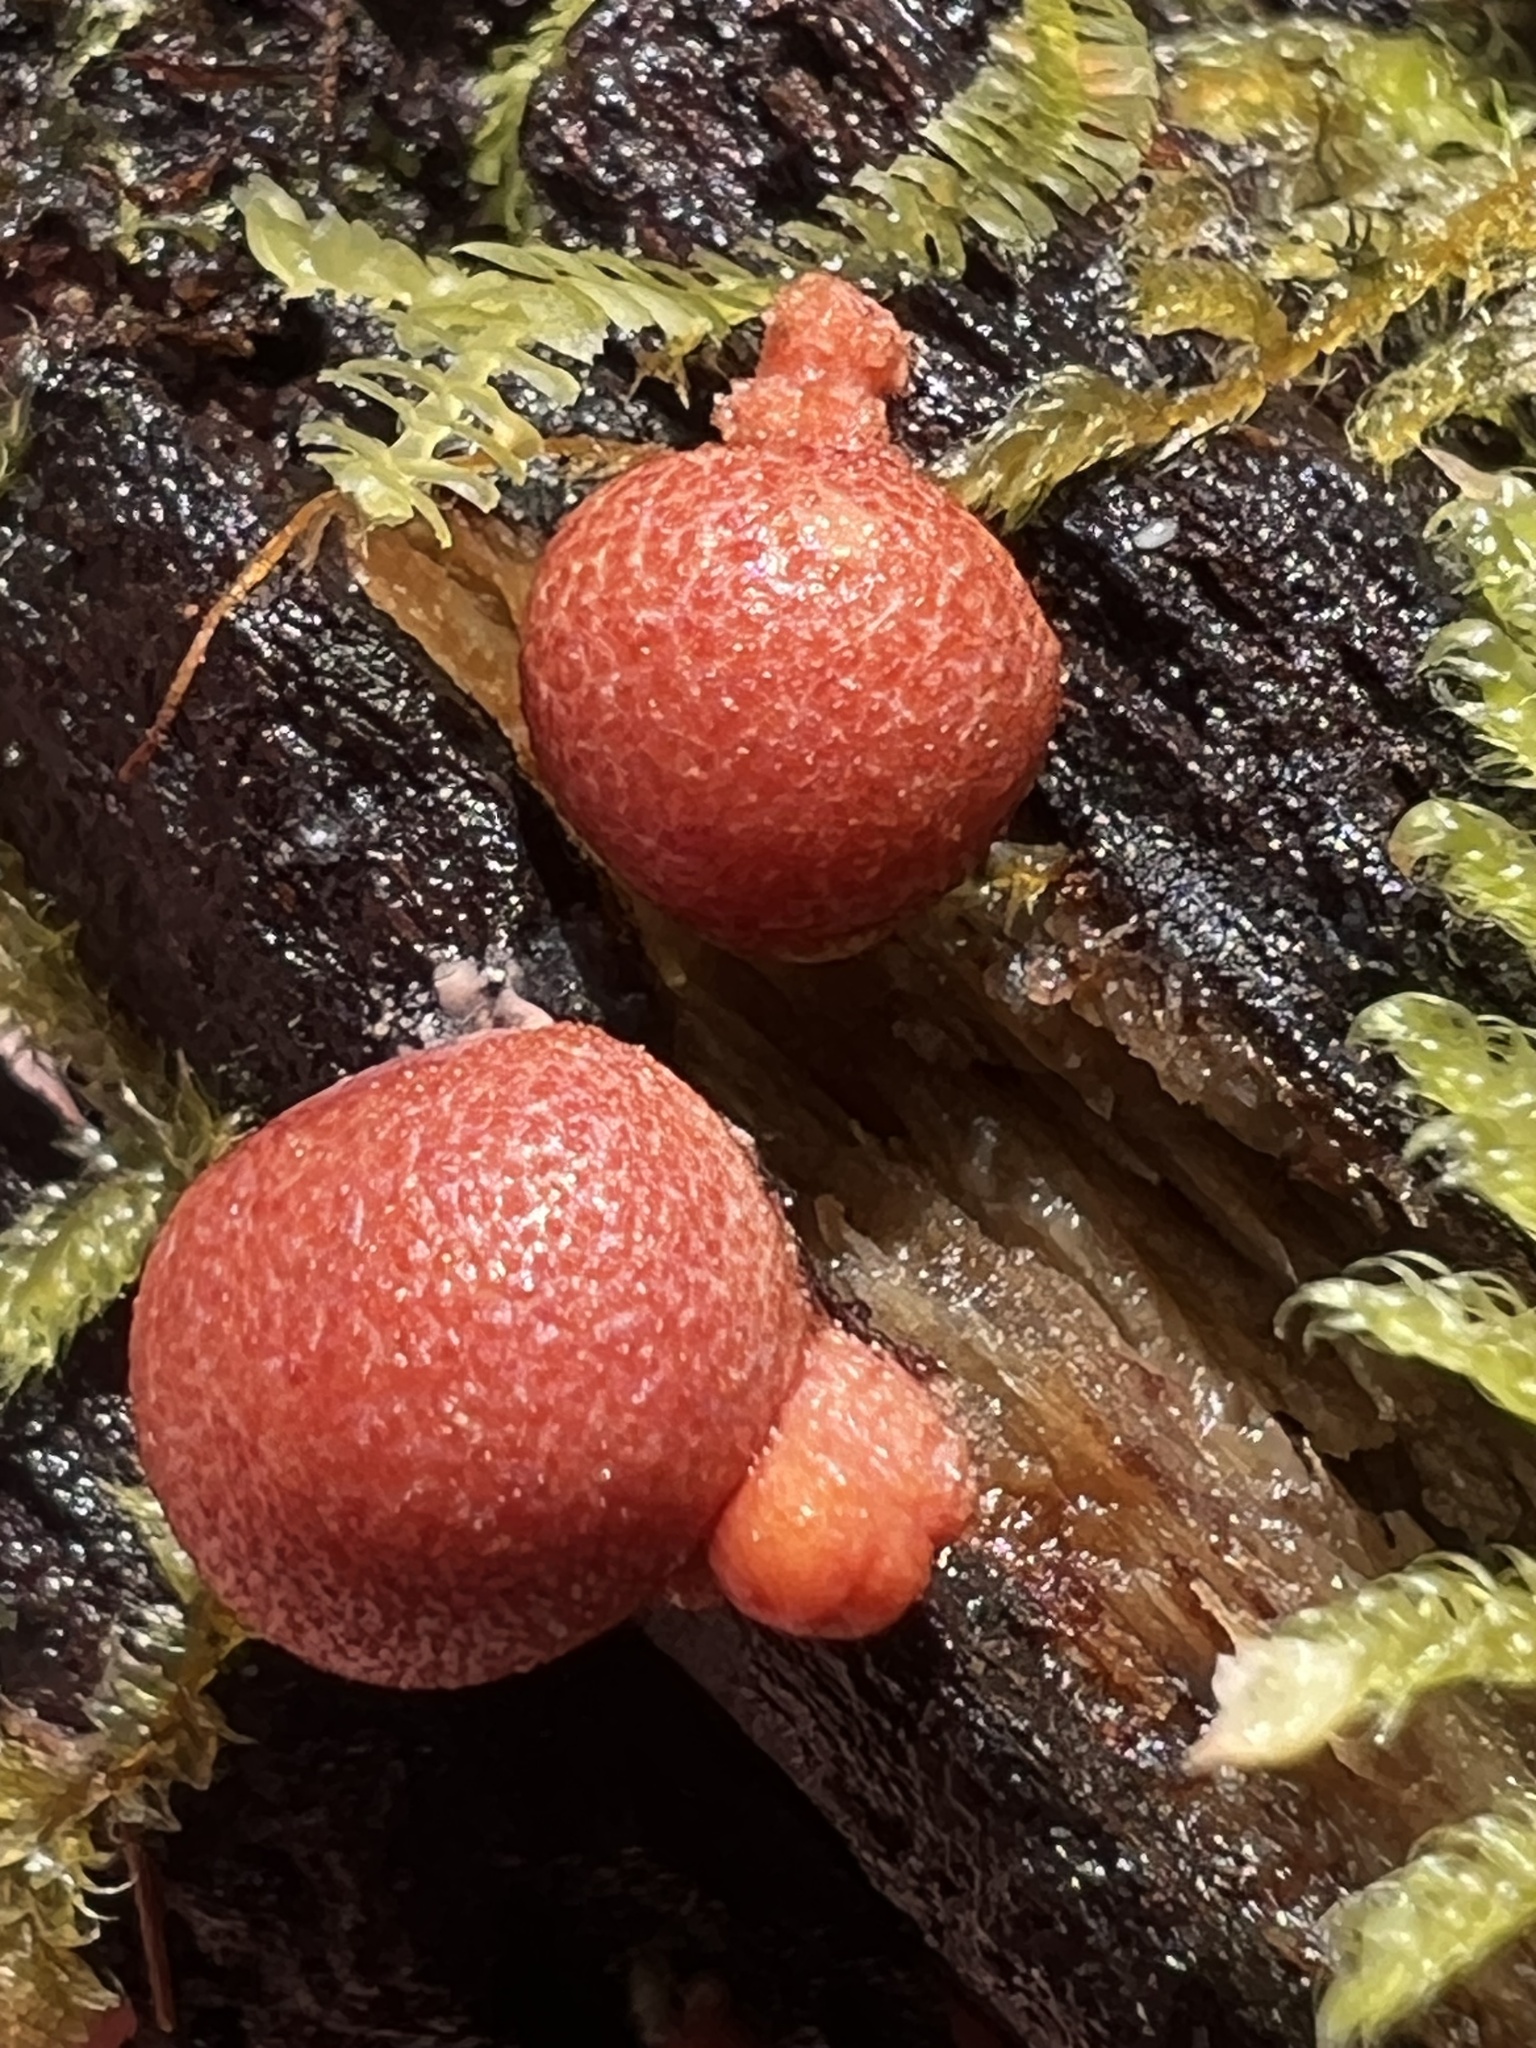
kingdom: Protozoa
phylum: Mycetozoa
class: Myxomycetes
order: Cribrariales
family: Tubiferaceae
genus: Lycogala
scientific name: Lycogala epidendrum
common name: Wolf's milk
